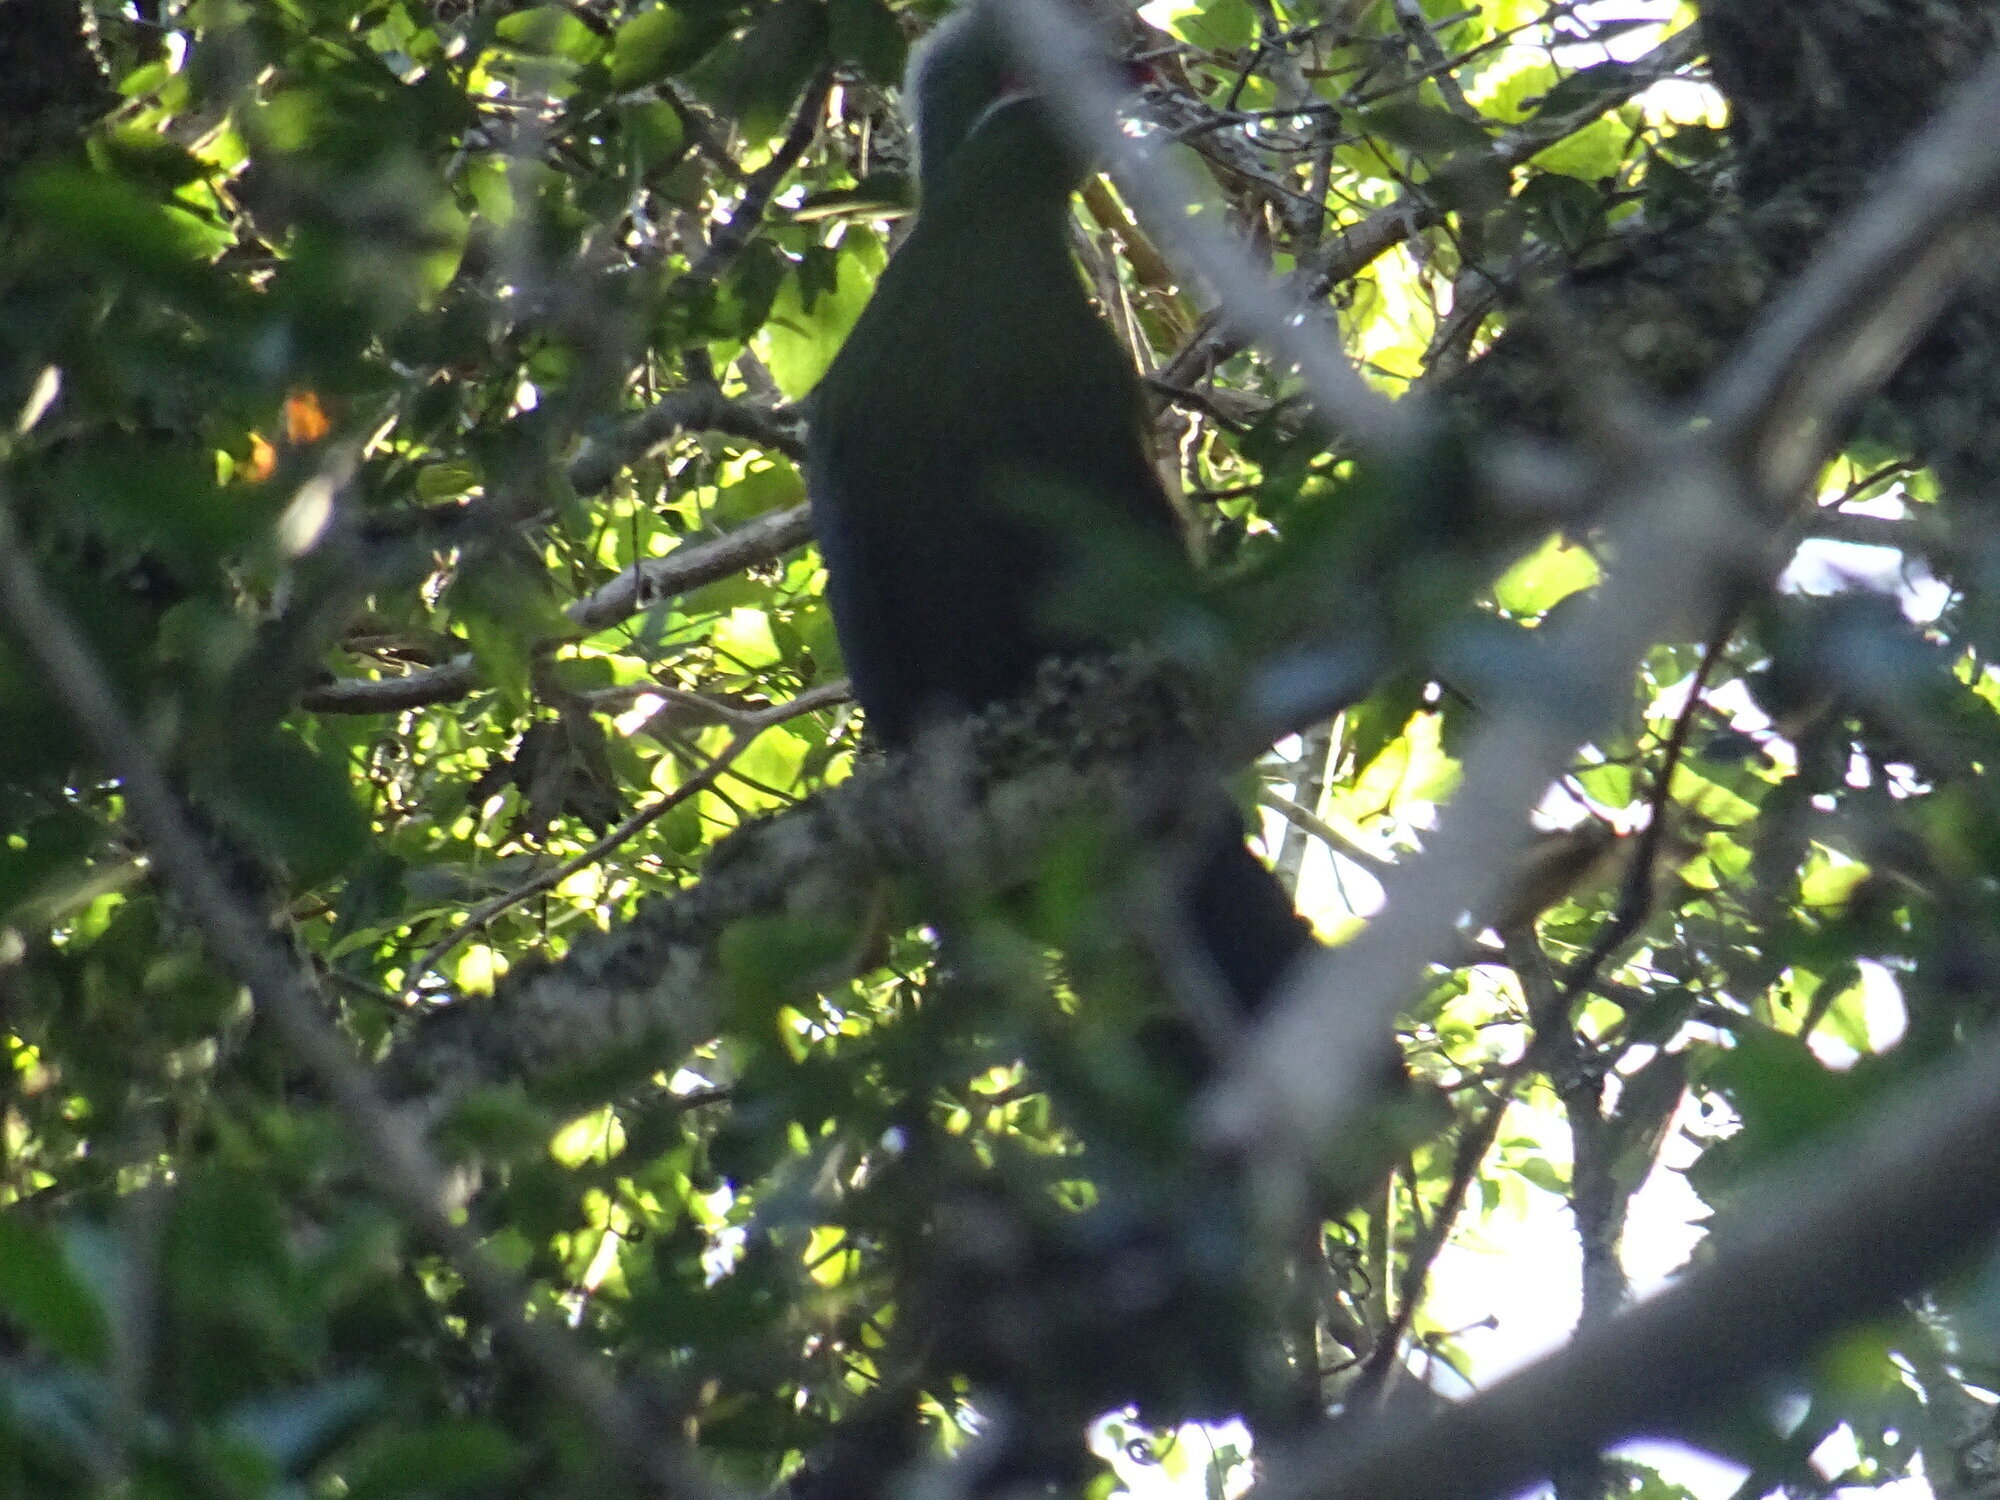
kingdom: Animalia
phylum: Chordata
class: Aves
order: Musophagiformes
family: Musophagidae
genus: Tauraco
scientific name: Tauraco corythaix
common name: Knysna turaco
